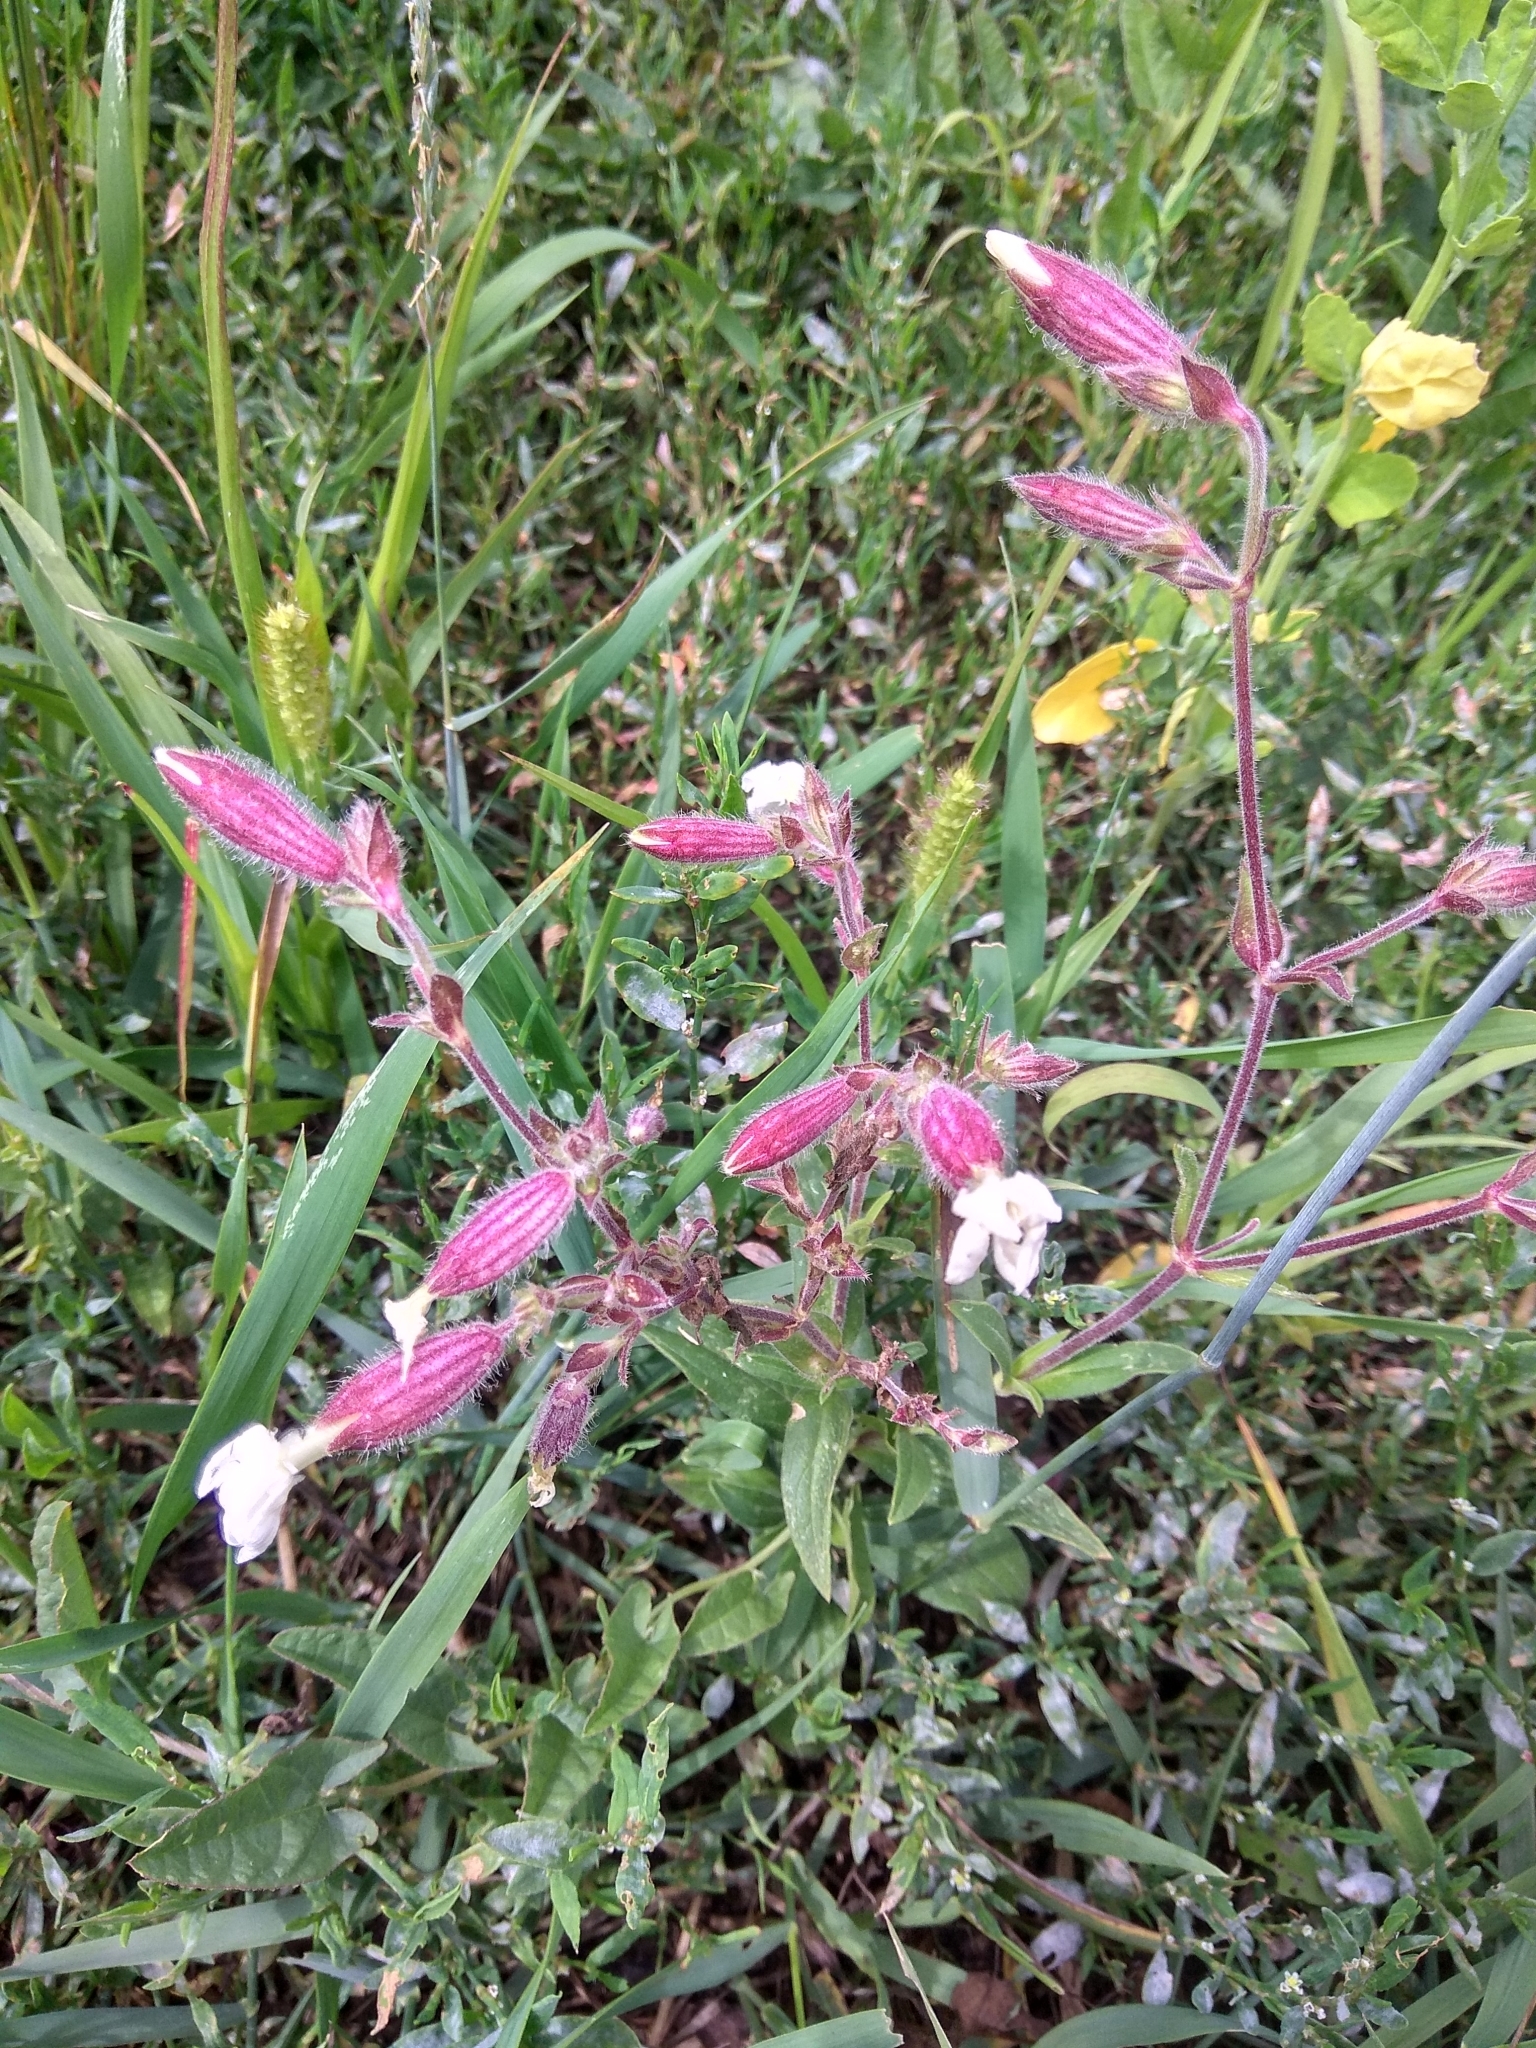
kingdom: Plantae
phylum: Tracheophyta
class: Magnoliopsida
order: Caryophyllales
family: Caryophyllaceae
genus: Silene
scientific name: Silene latifolia
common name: White campion
